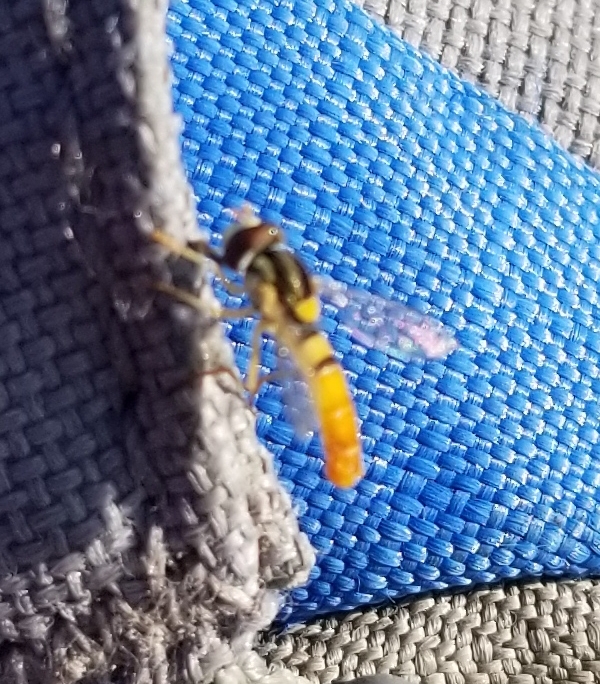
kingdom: Animalia
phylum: Arthropoda
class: Insecta
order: Diptera
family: Syrphidae
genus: Sphaerophoria
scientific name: Sphaerophoria contigua
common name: Tufted globetail
